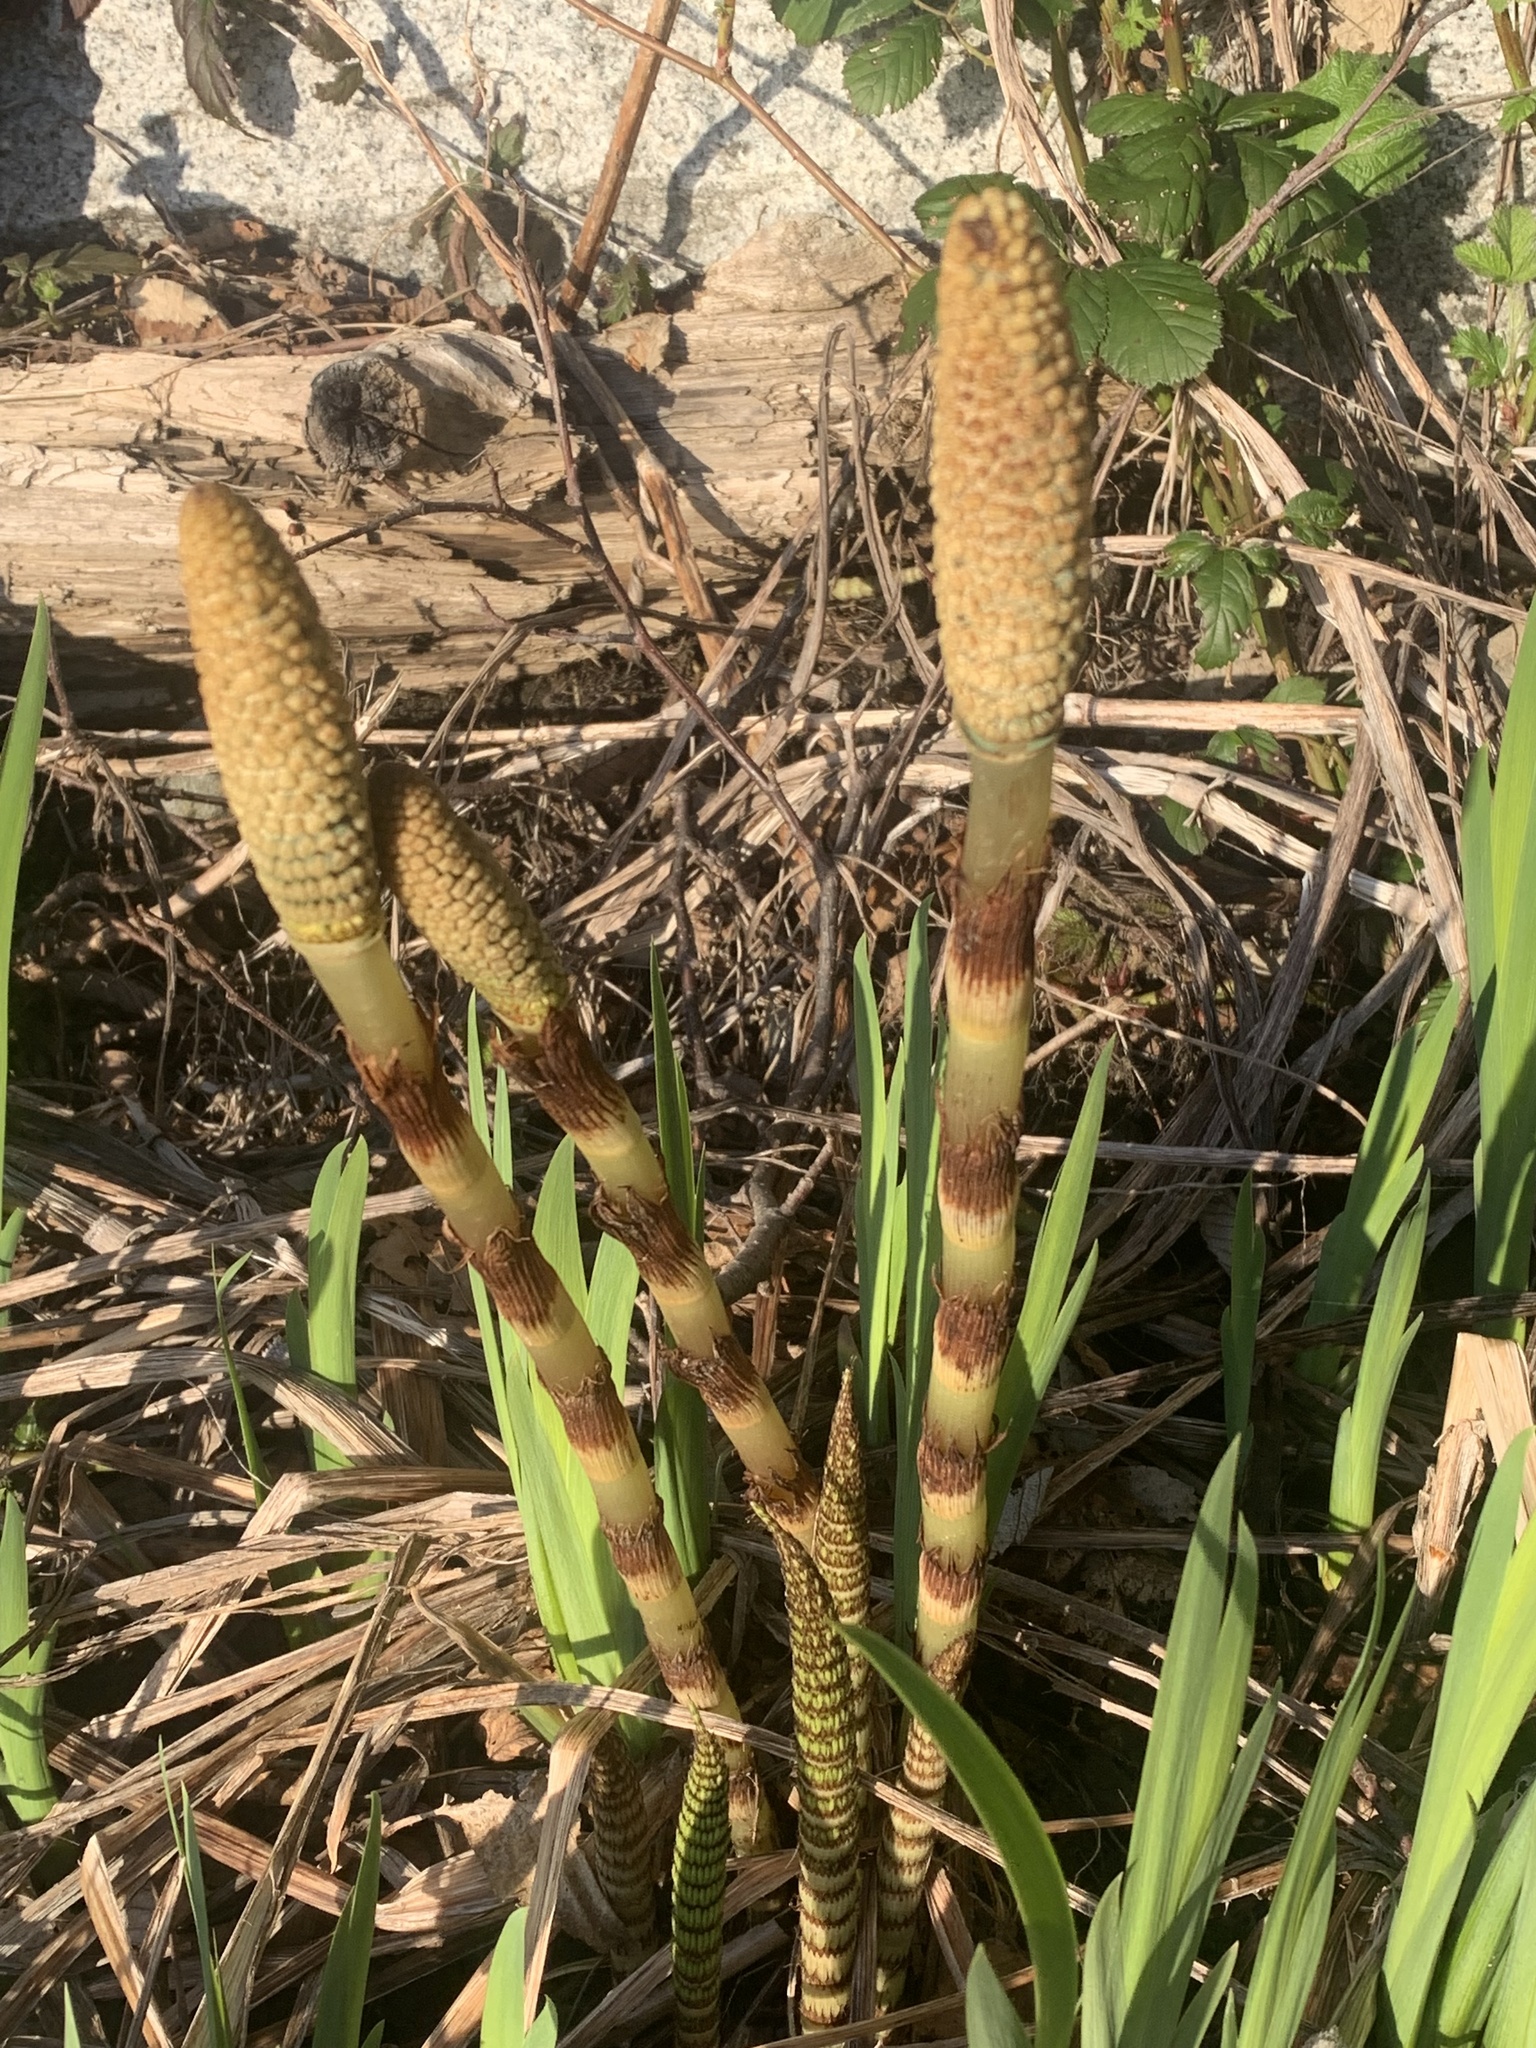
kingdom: Plantae
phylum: Tracheophyta
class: Polypodiopsida
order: Equisetales
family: Equisetaceae
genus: Equisetum
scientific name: Equisetum braunii
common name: Braun's horsetail
